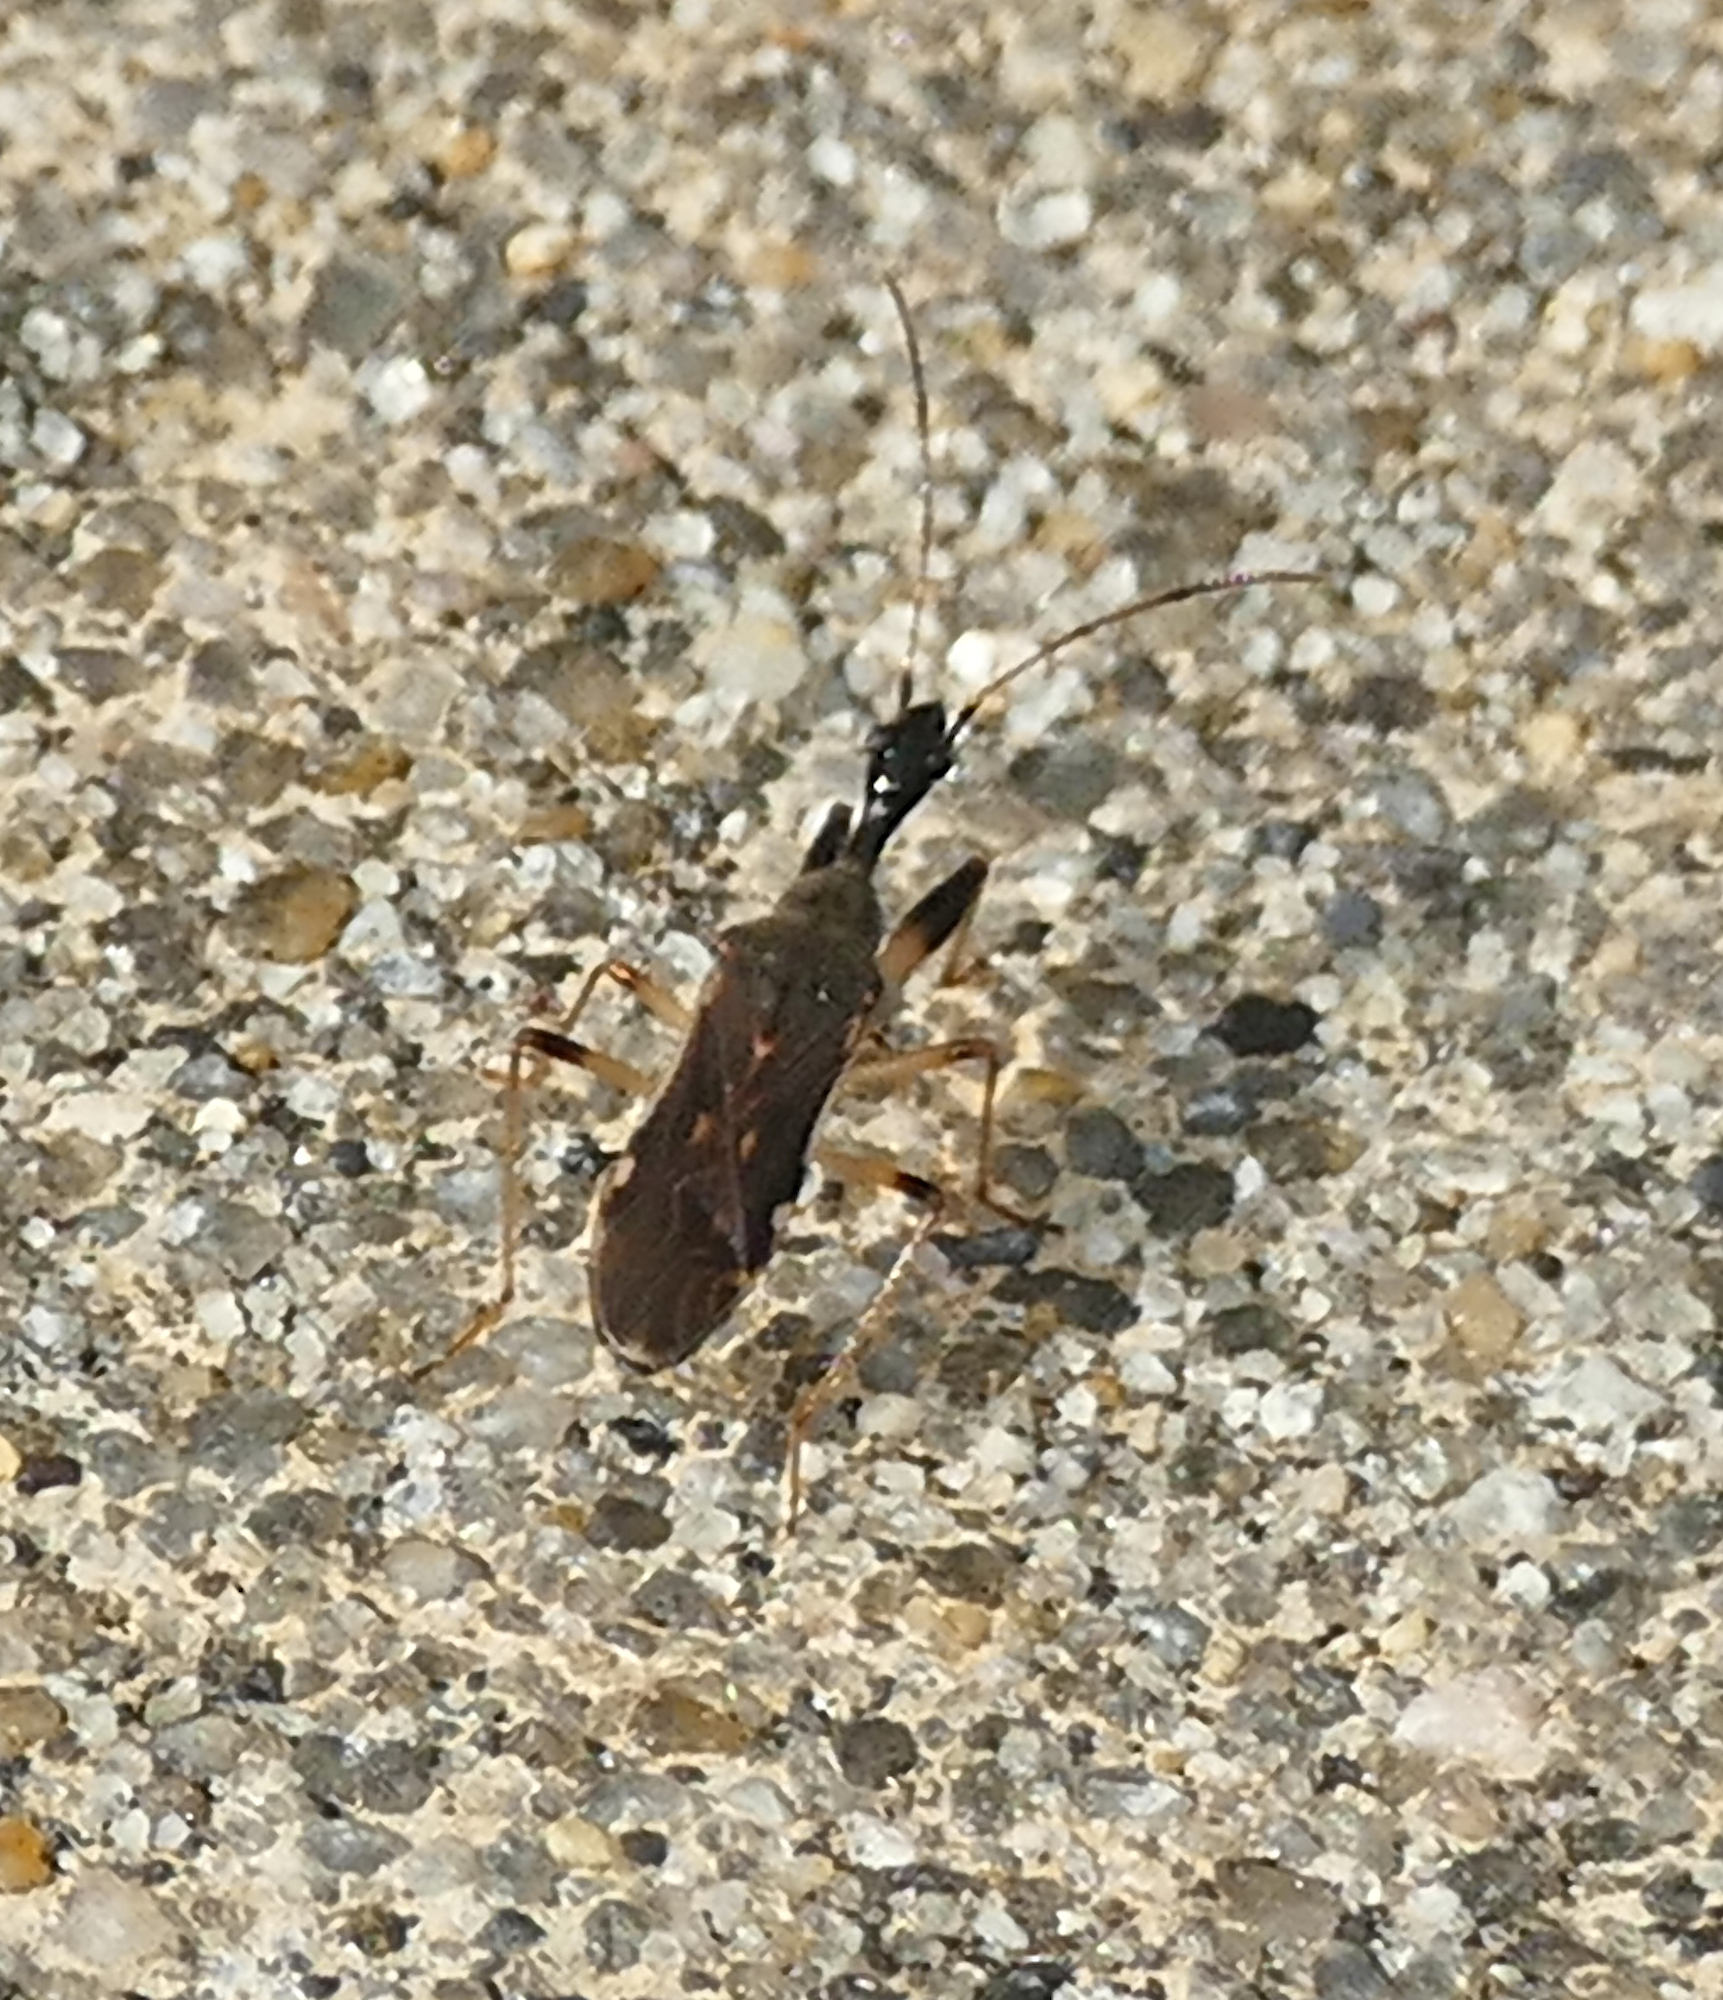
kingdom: Animalia
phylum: Arthropoda
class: Insecta
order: Hemiptera
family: Rhyparochromidae
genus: Myodocha
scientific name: Myodocha serripes
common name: Long-necked seed bug
